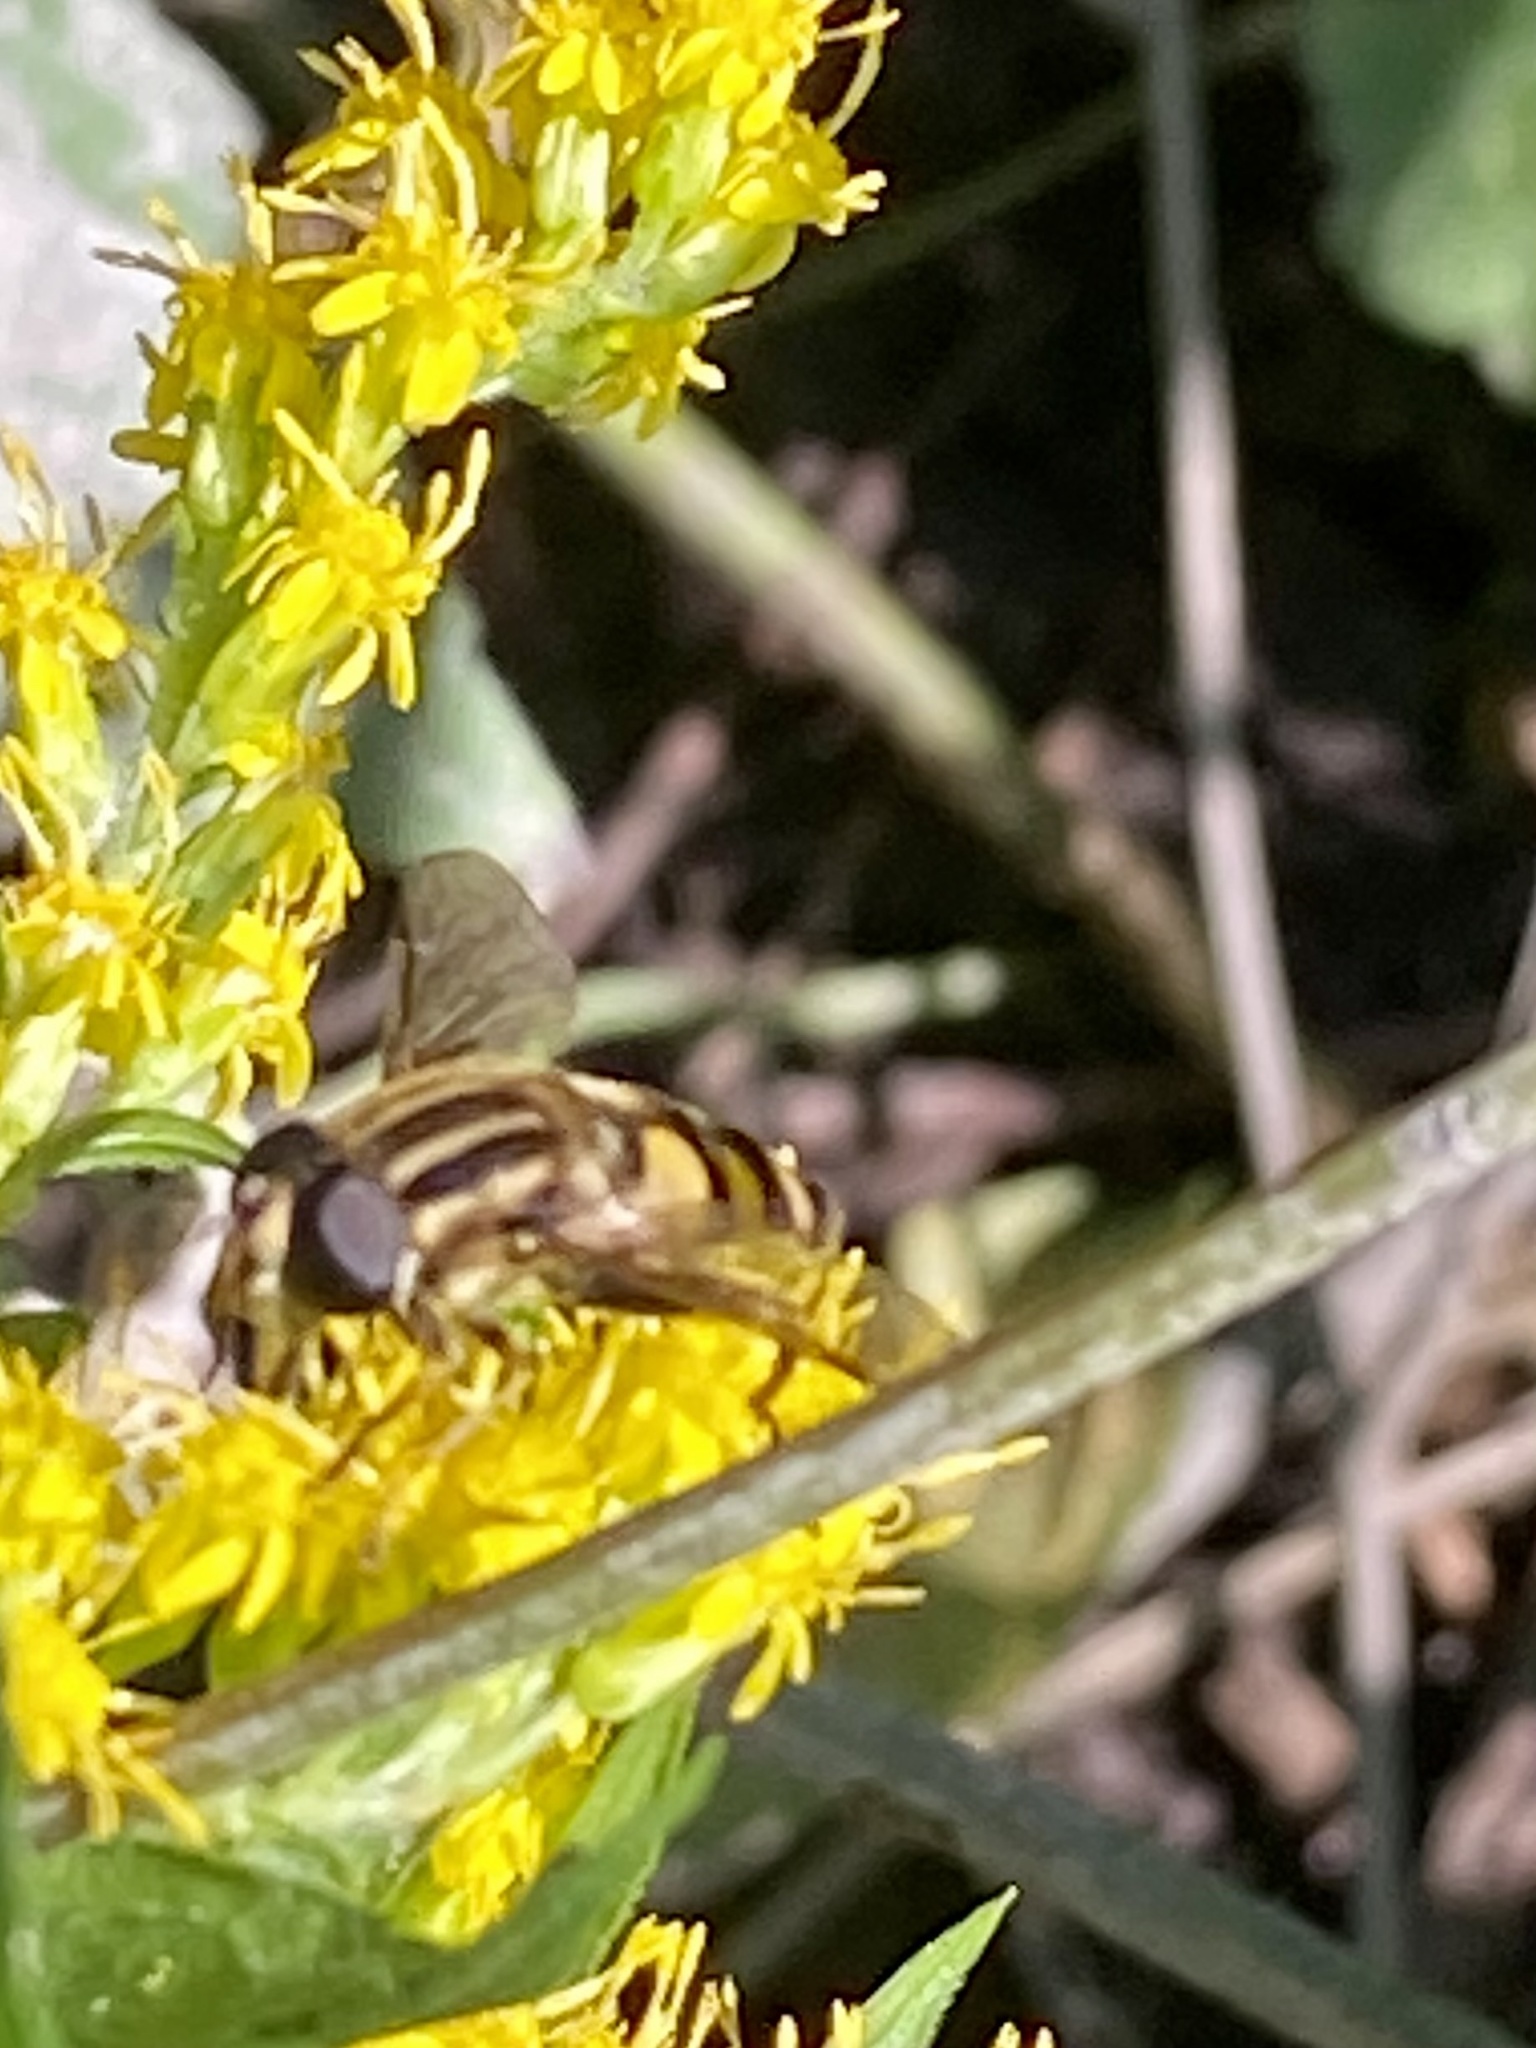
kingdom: Animalia
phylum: Arthropoda
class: Insecta
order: Diptera
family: Syrphidae
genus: Helophilus
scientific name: Helophilus fasciatus
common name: Narrow-headed marsh fly
